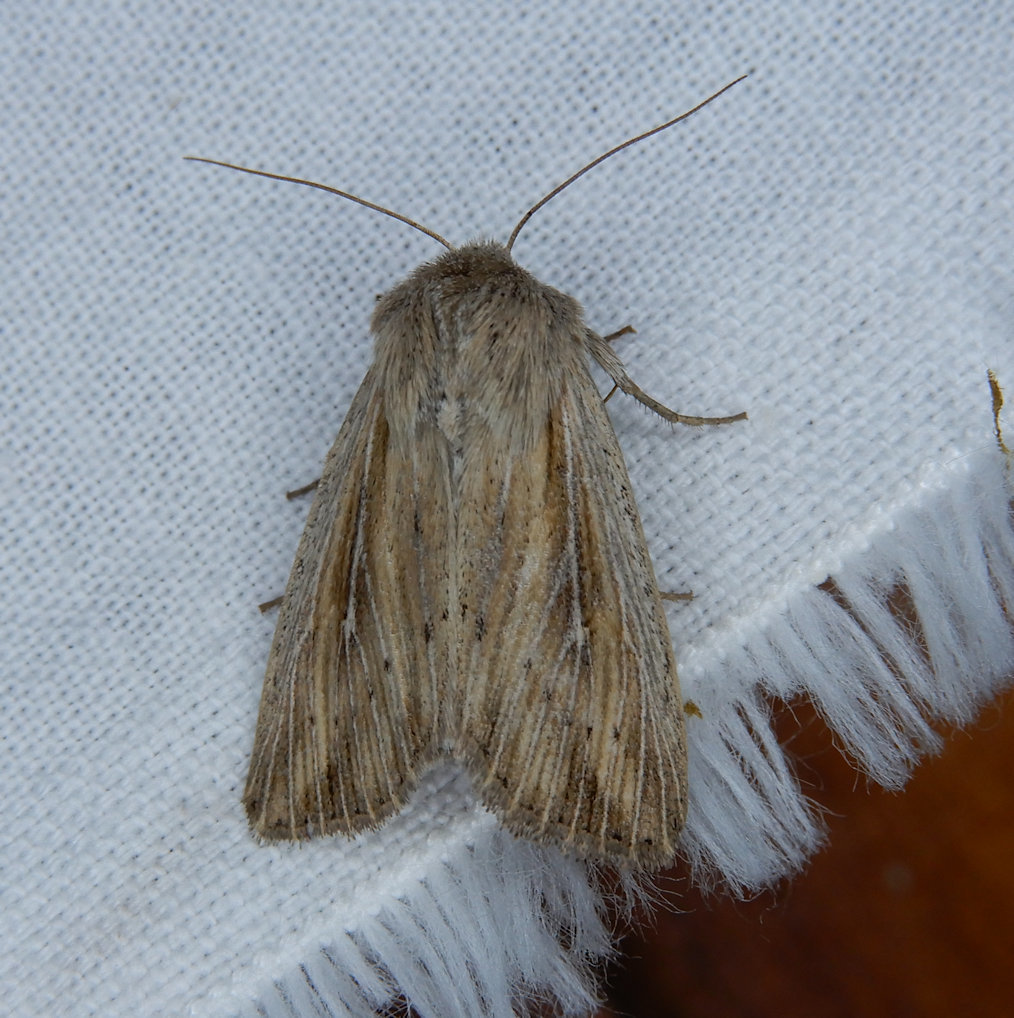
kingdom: Animalia
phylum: Arthropoda
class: Insecta
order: Lepidoptera
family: Noctuidae
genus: Leucania
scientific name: Leucania insueta
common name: Heterodox wainscot moth
